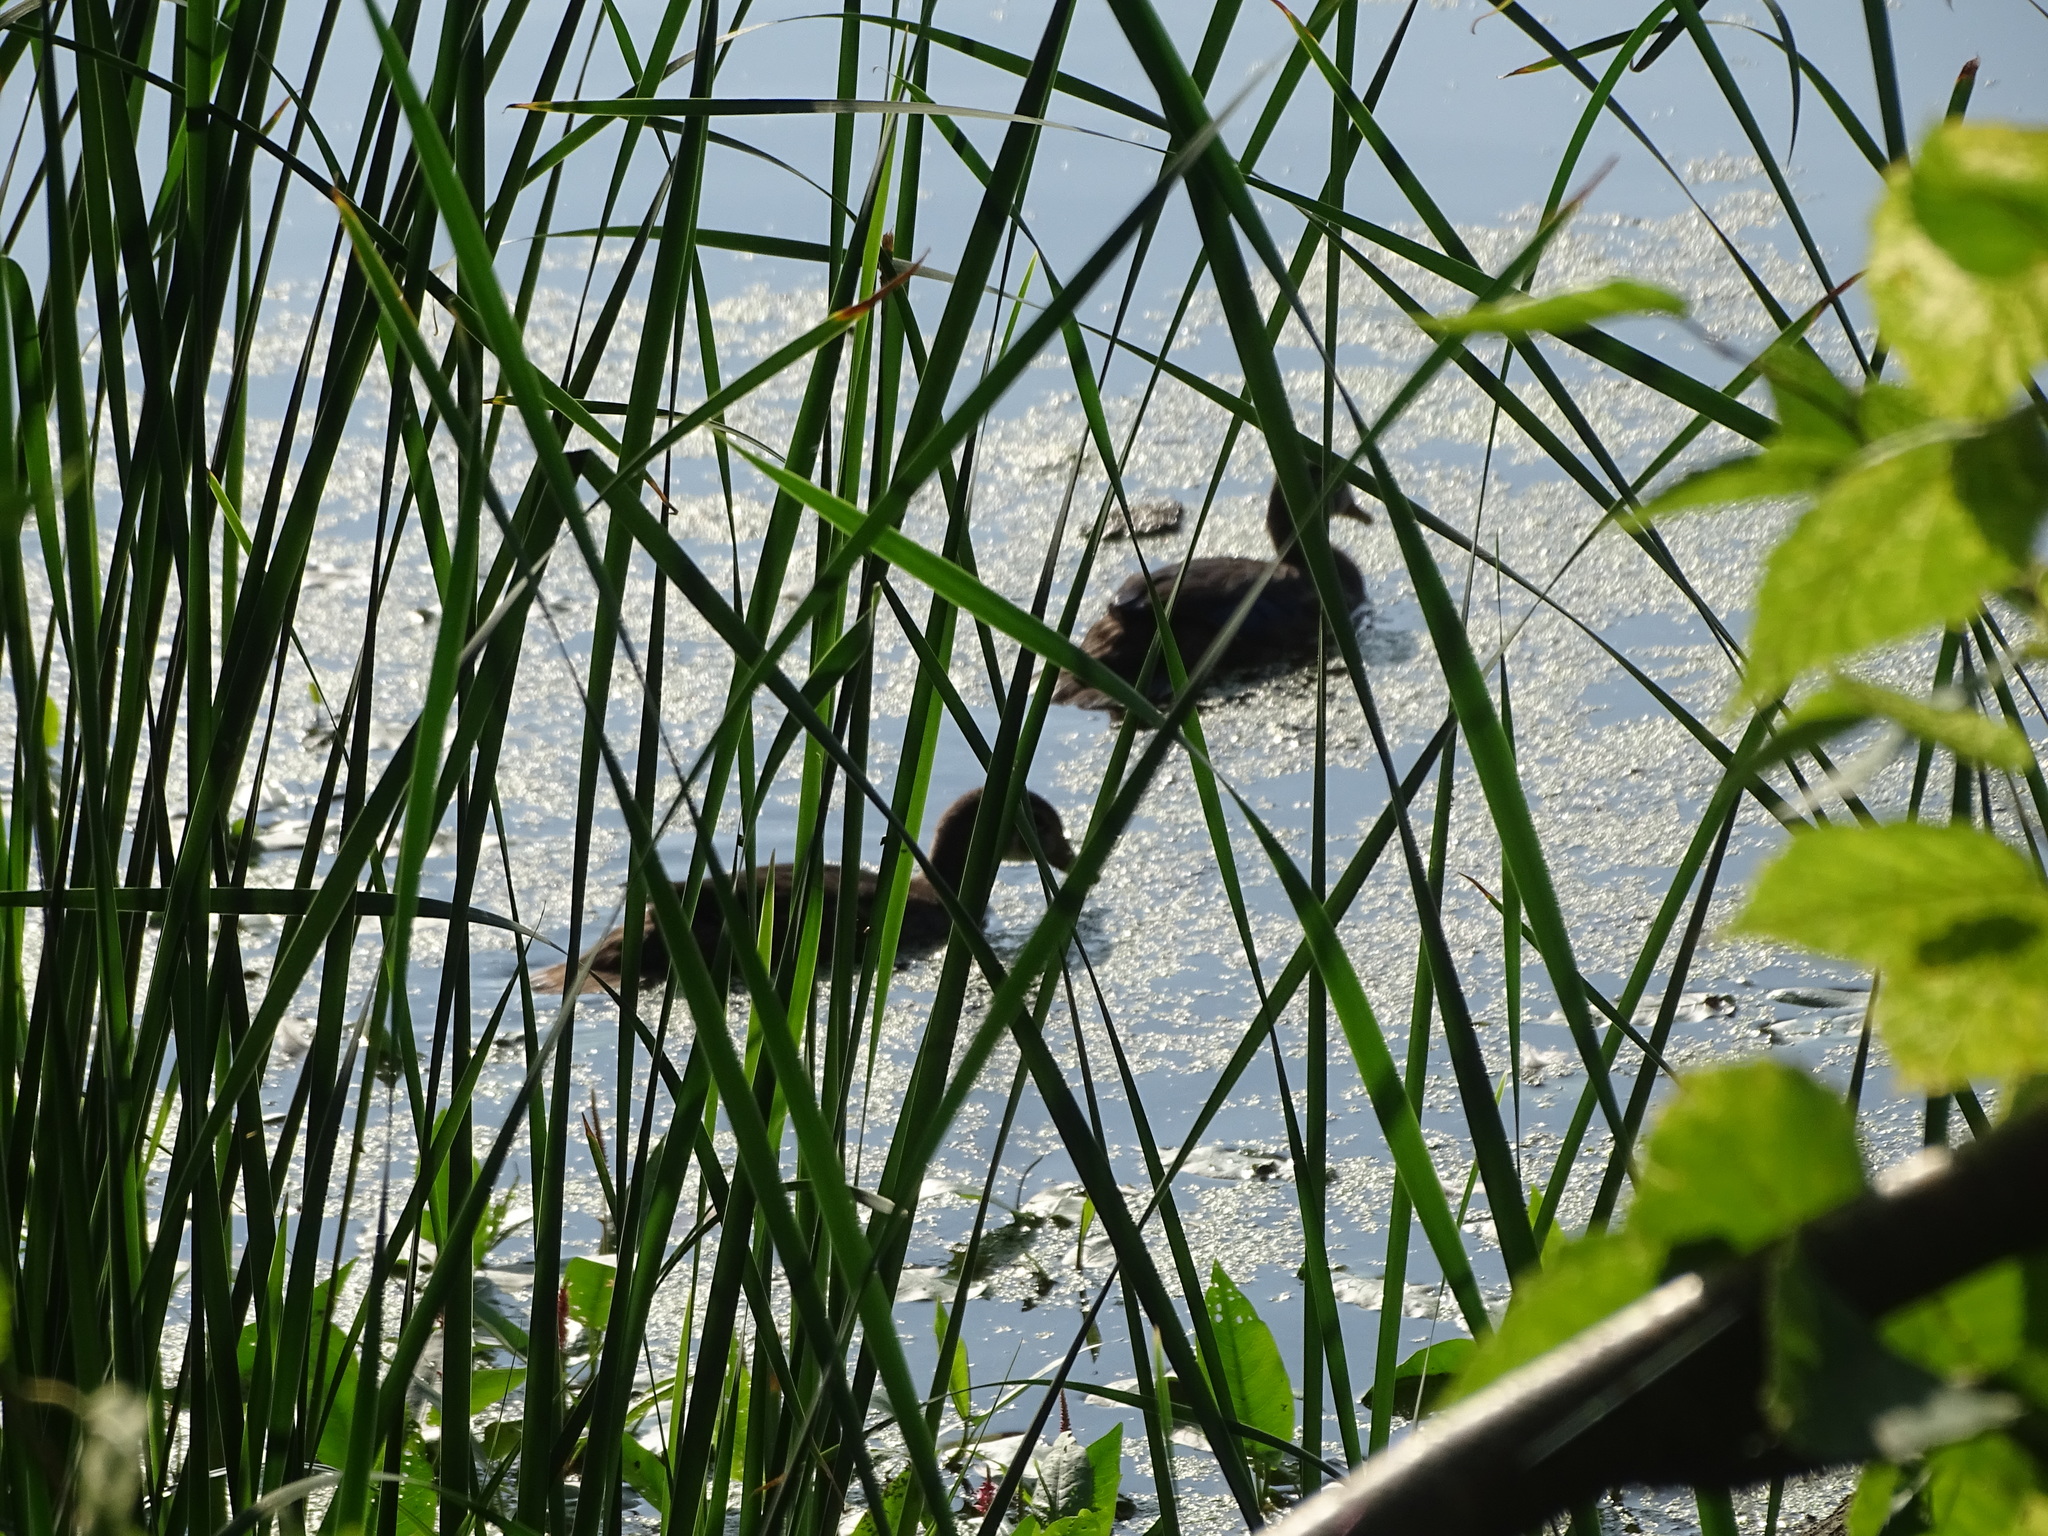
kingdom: Animalia
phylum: Chordata
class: Aves
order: Anseriformes
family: Anatidae
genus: Aix
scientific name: Aix sponsa
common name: Wood duck
